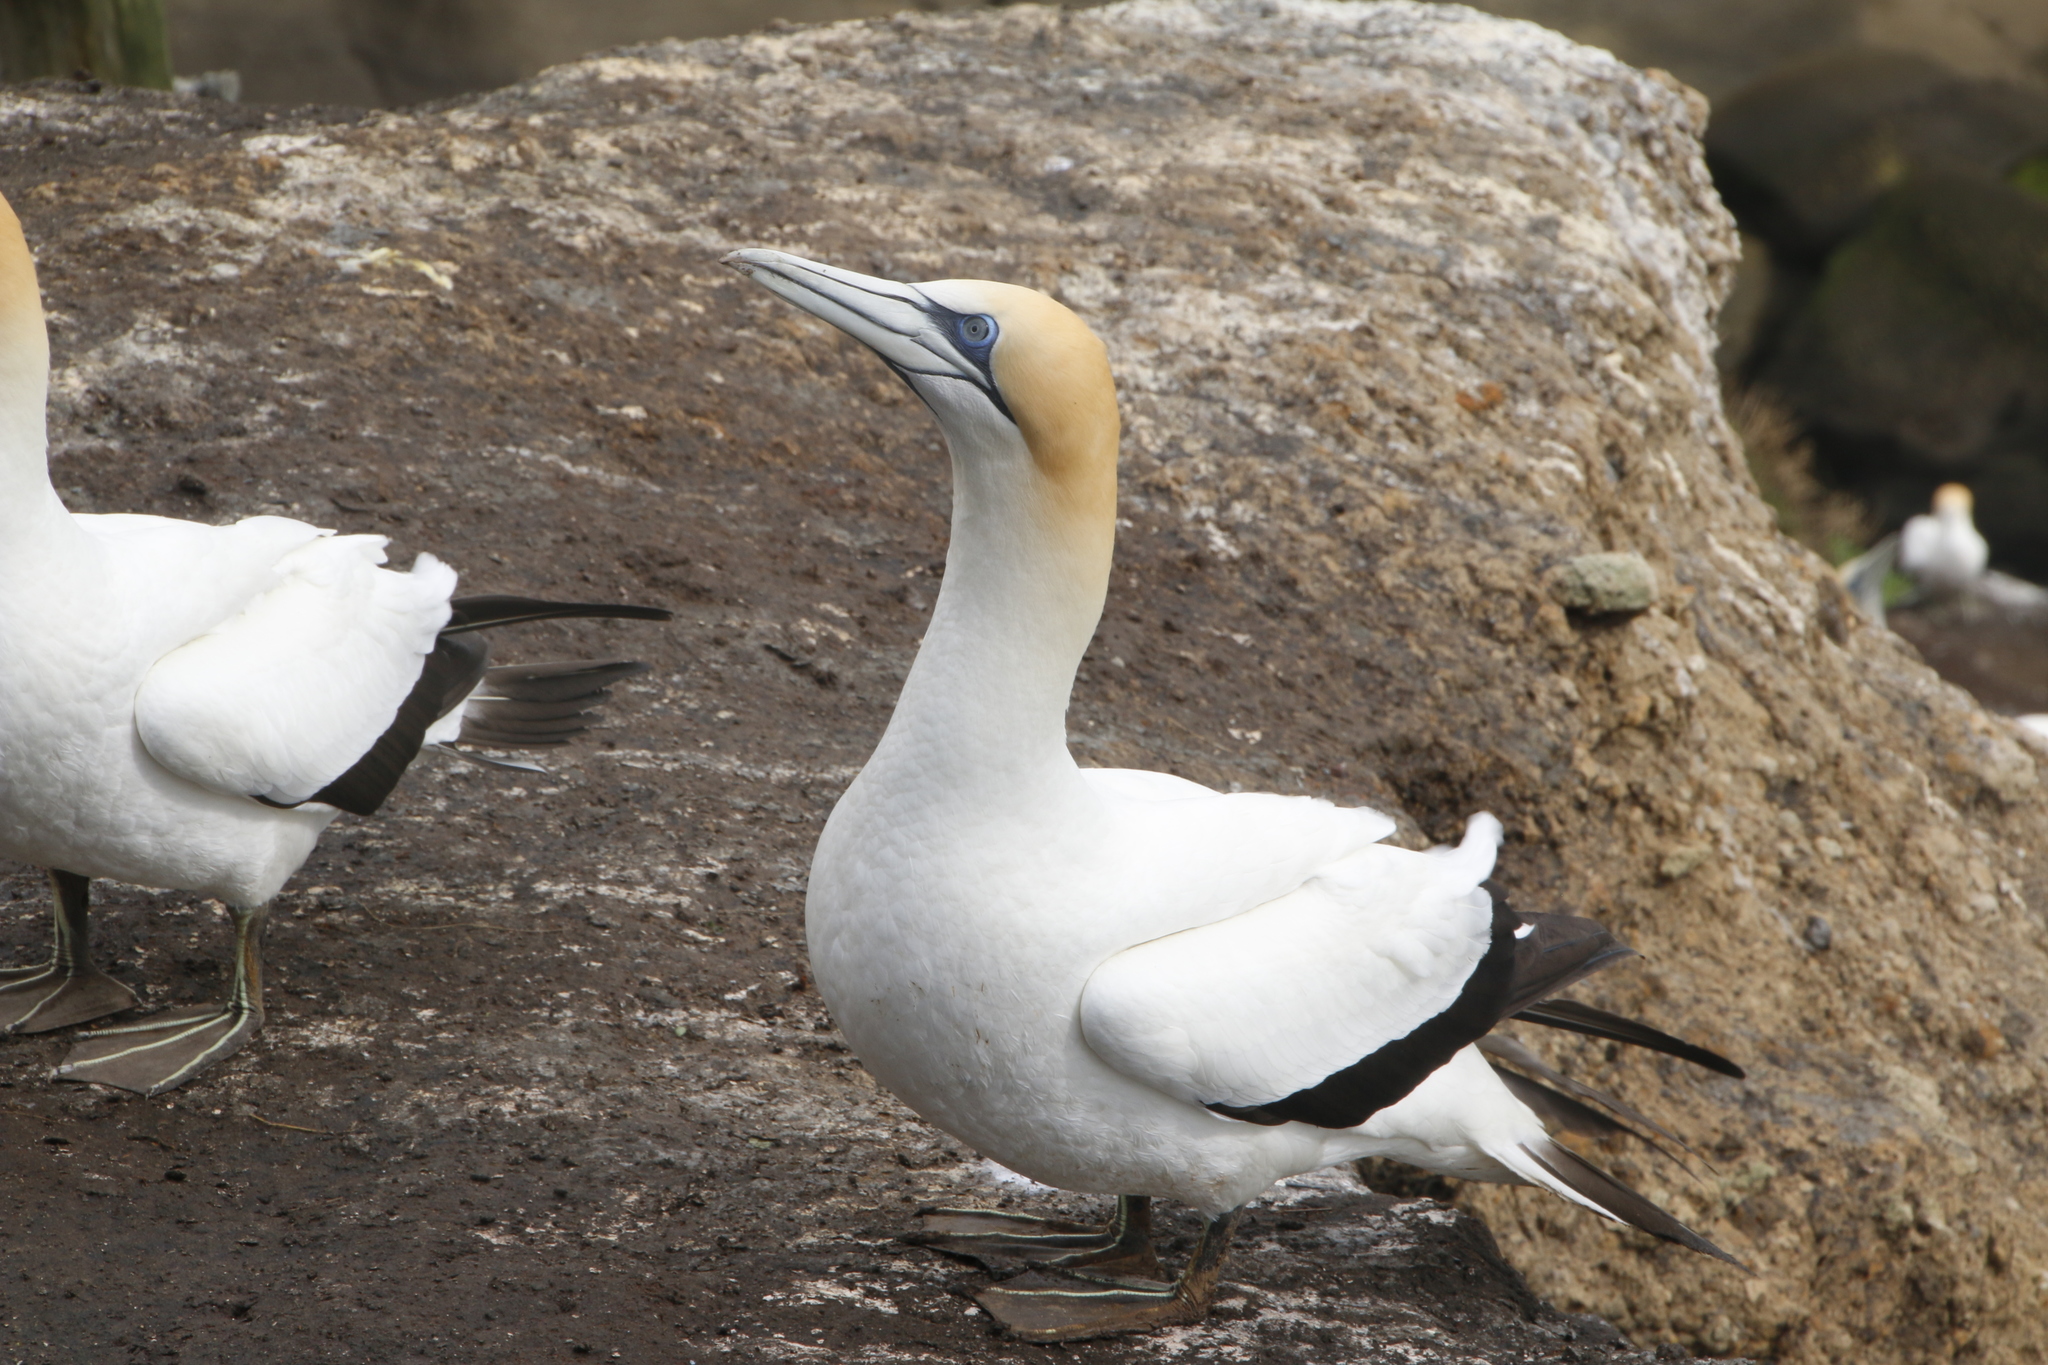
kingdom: Animalia
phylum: Chordata
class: Aves
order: Suliformes
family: Sulidae
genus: Morus
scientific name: Morus serrator
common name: Australasian gannet
